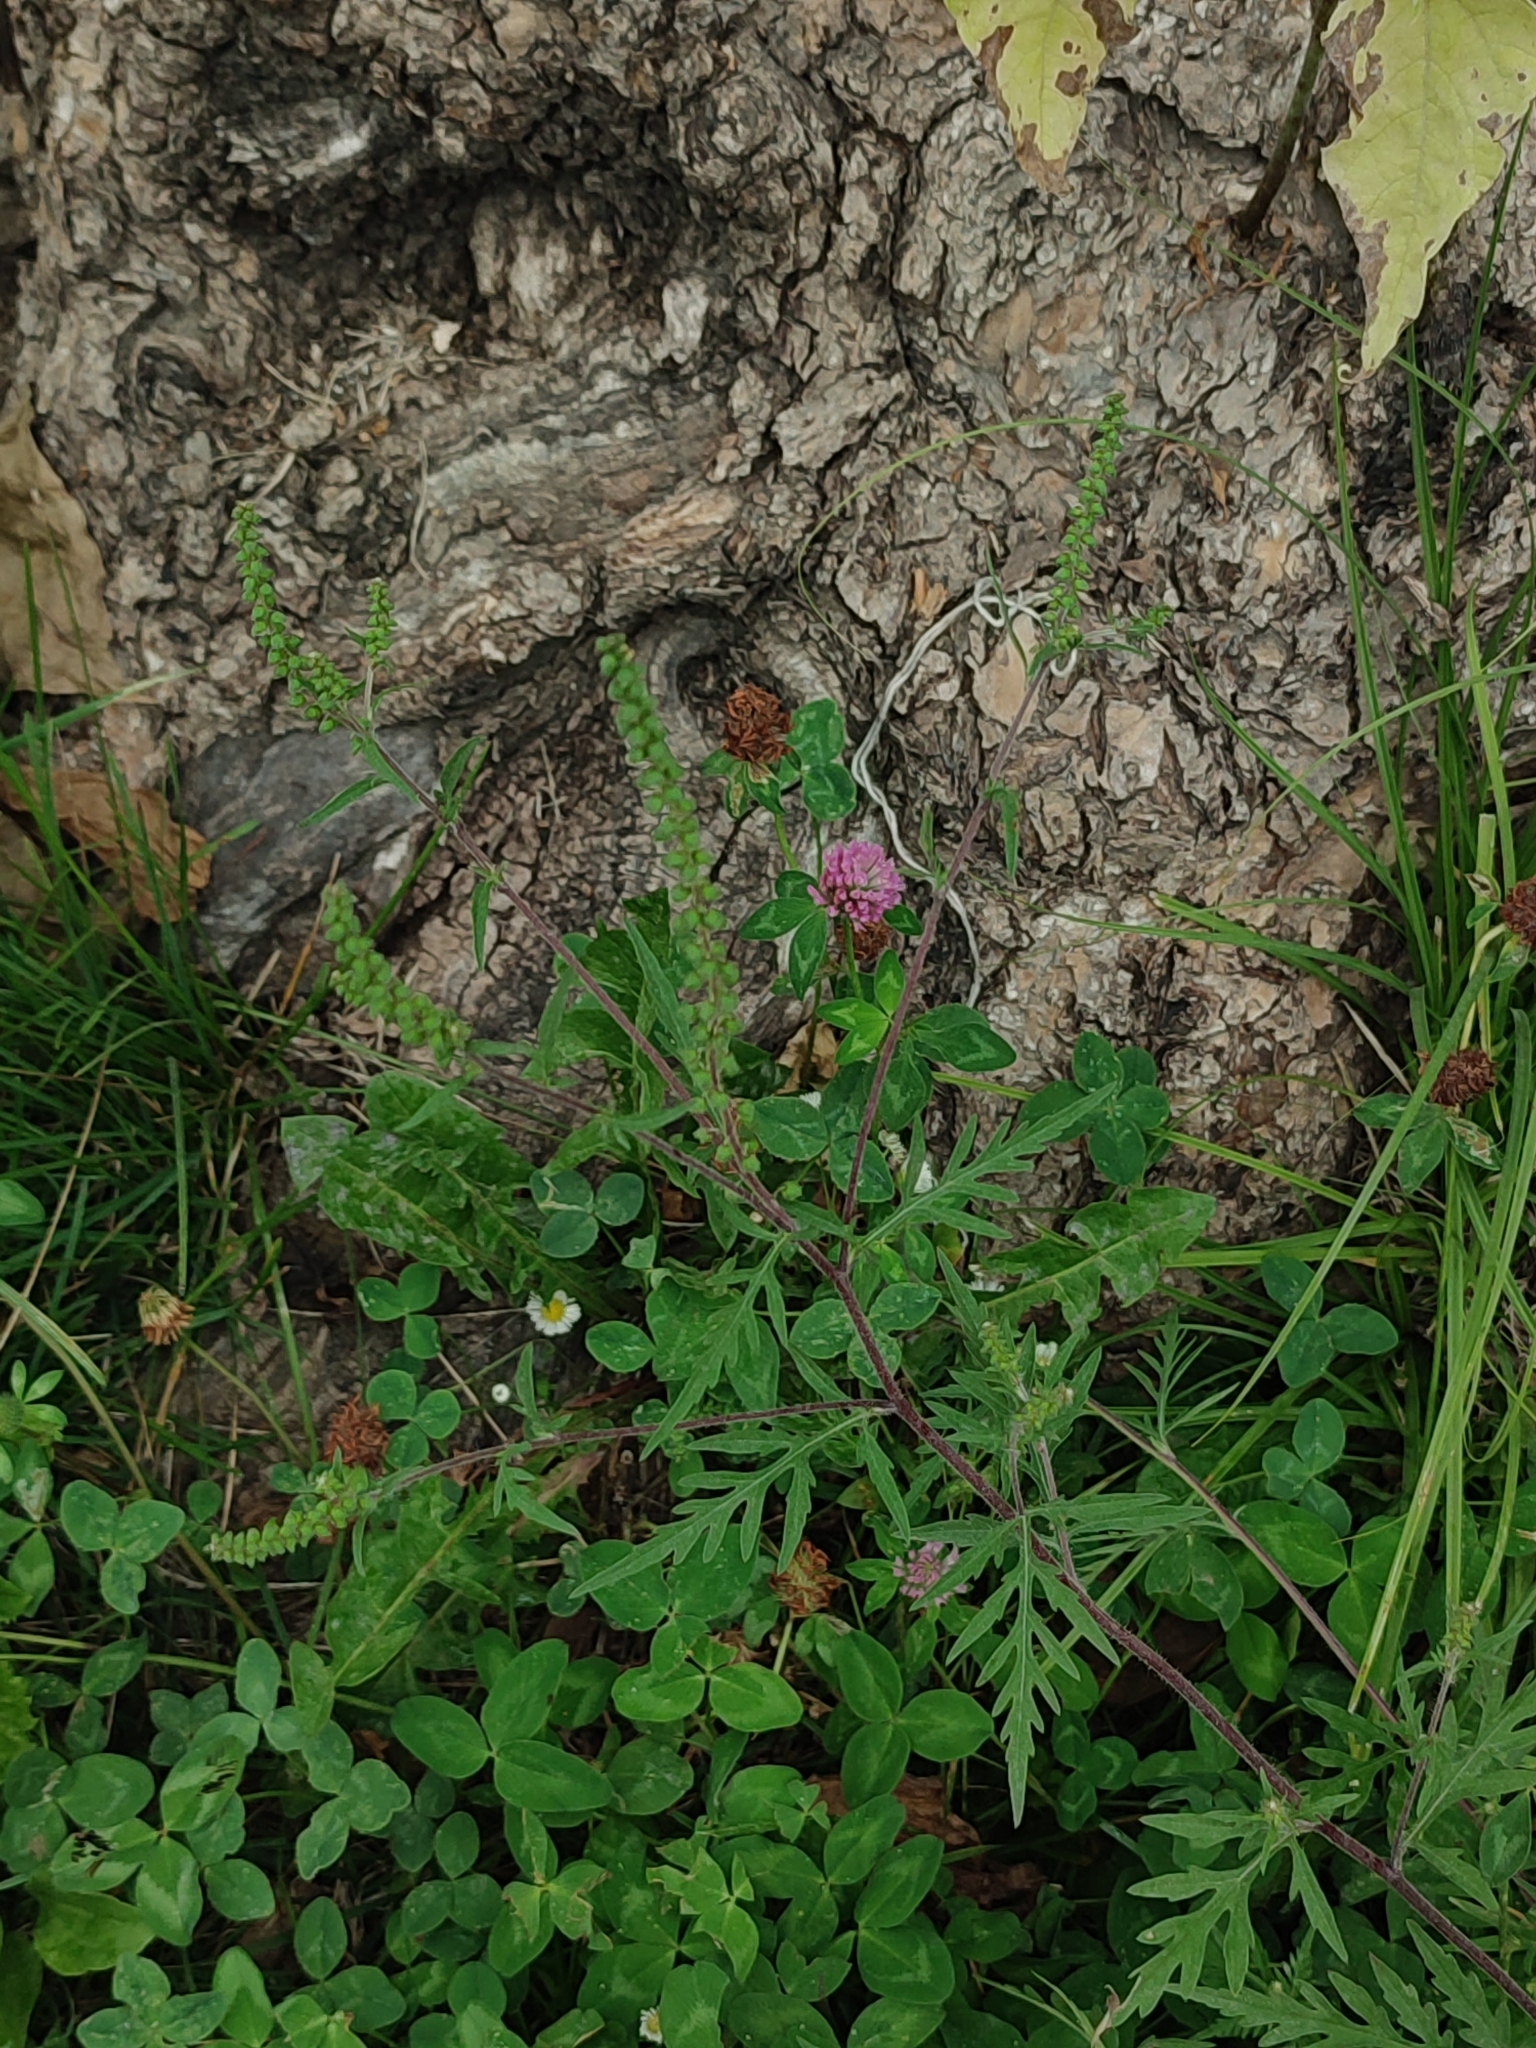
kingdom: Plantae
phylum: Tracheophyta
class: Magnoliopsida
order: Asterales
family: Asteraceae
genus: Ambrosia
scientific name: Ambrosia artemisiifolia
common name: Annual ragweed
